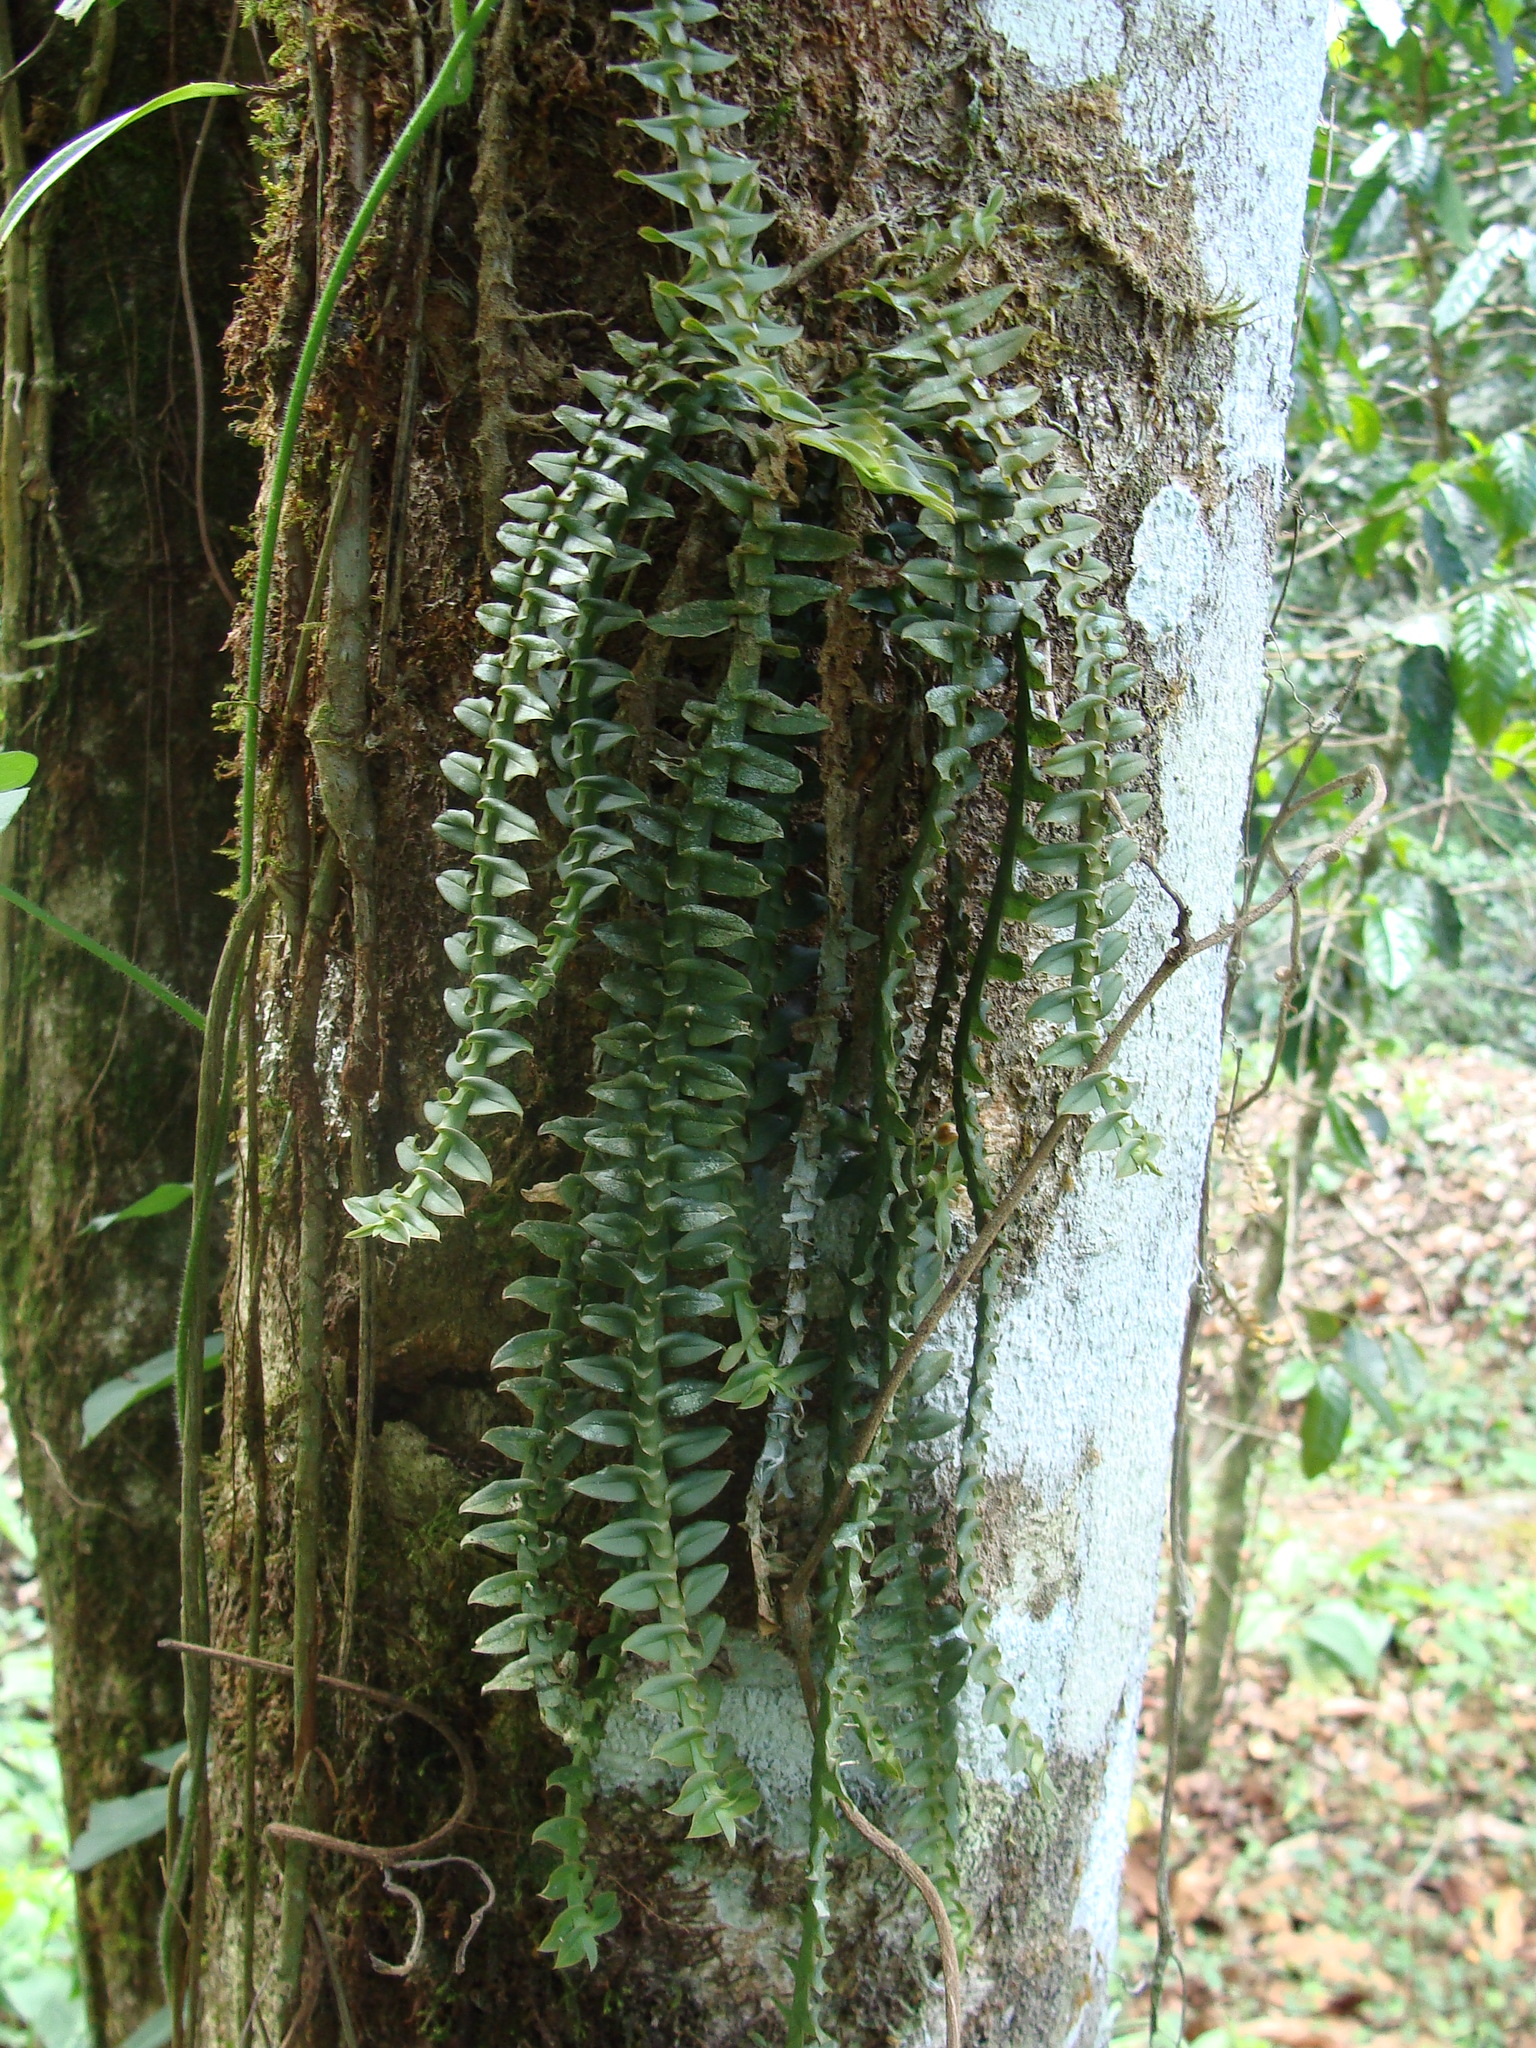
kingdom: Plantae
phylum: Tracheophyta
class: Liliopsida
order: Asparagales
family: Orchidaceae
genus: Dichaea
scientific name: Dichaea muricatoides
